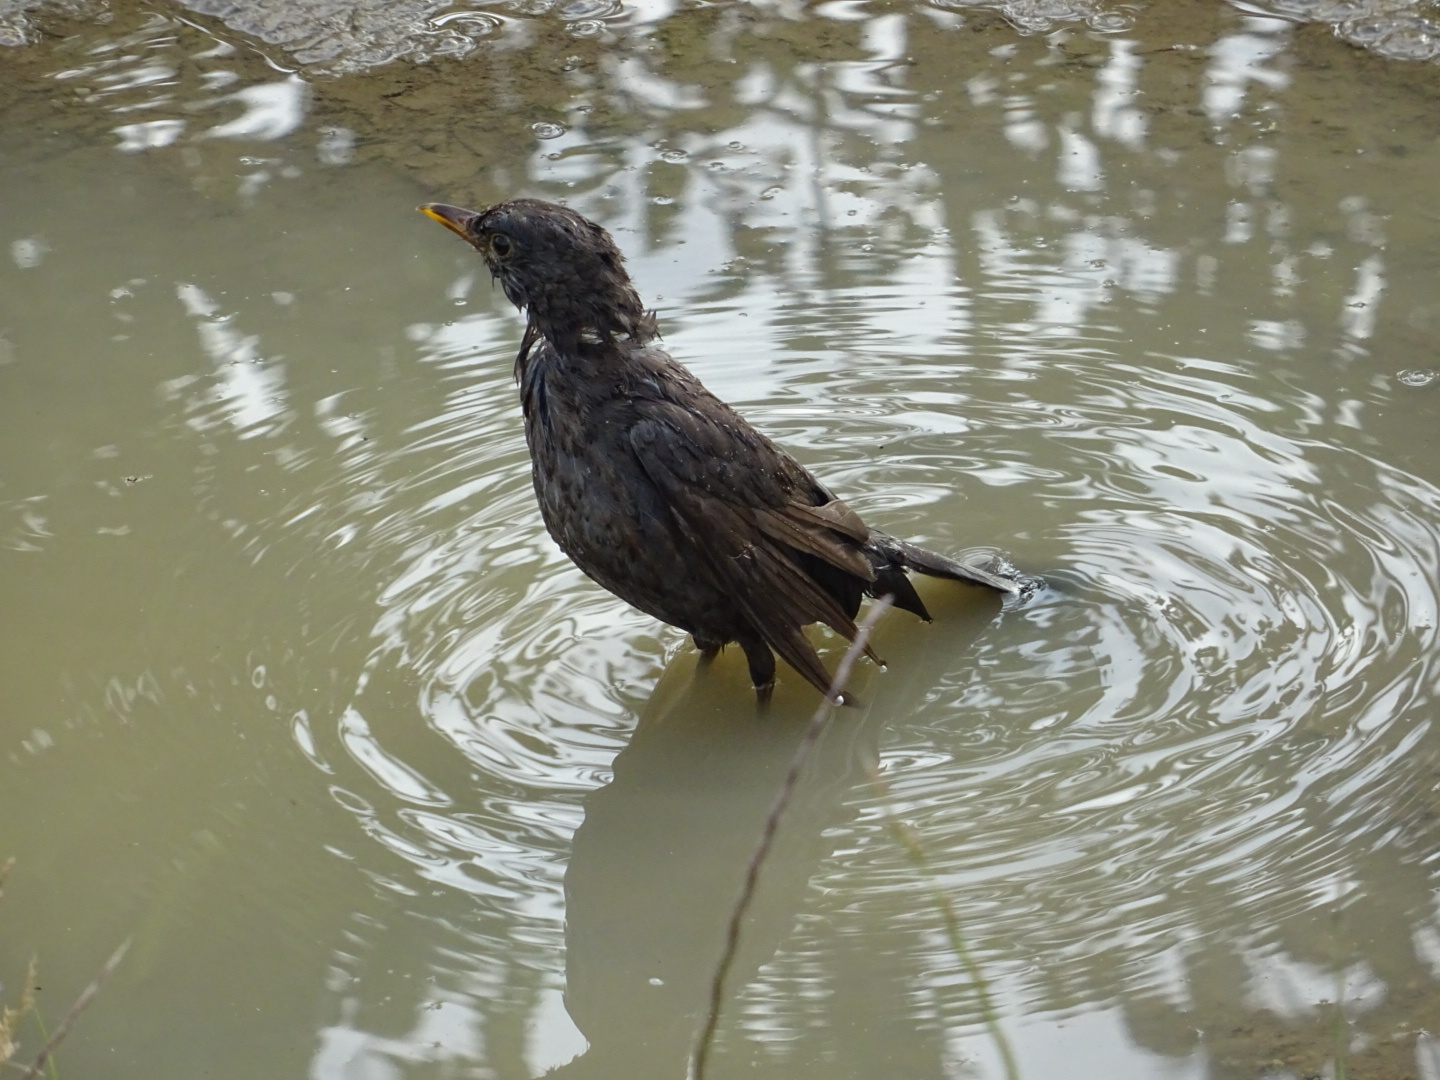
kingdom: Animalia
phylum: Chordata
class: Aves
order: Passeriformes
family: Turdidae
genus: Turdus
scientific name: Turdus merula
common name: Common blackbird
